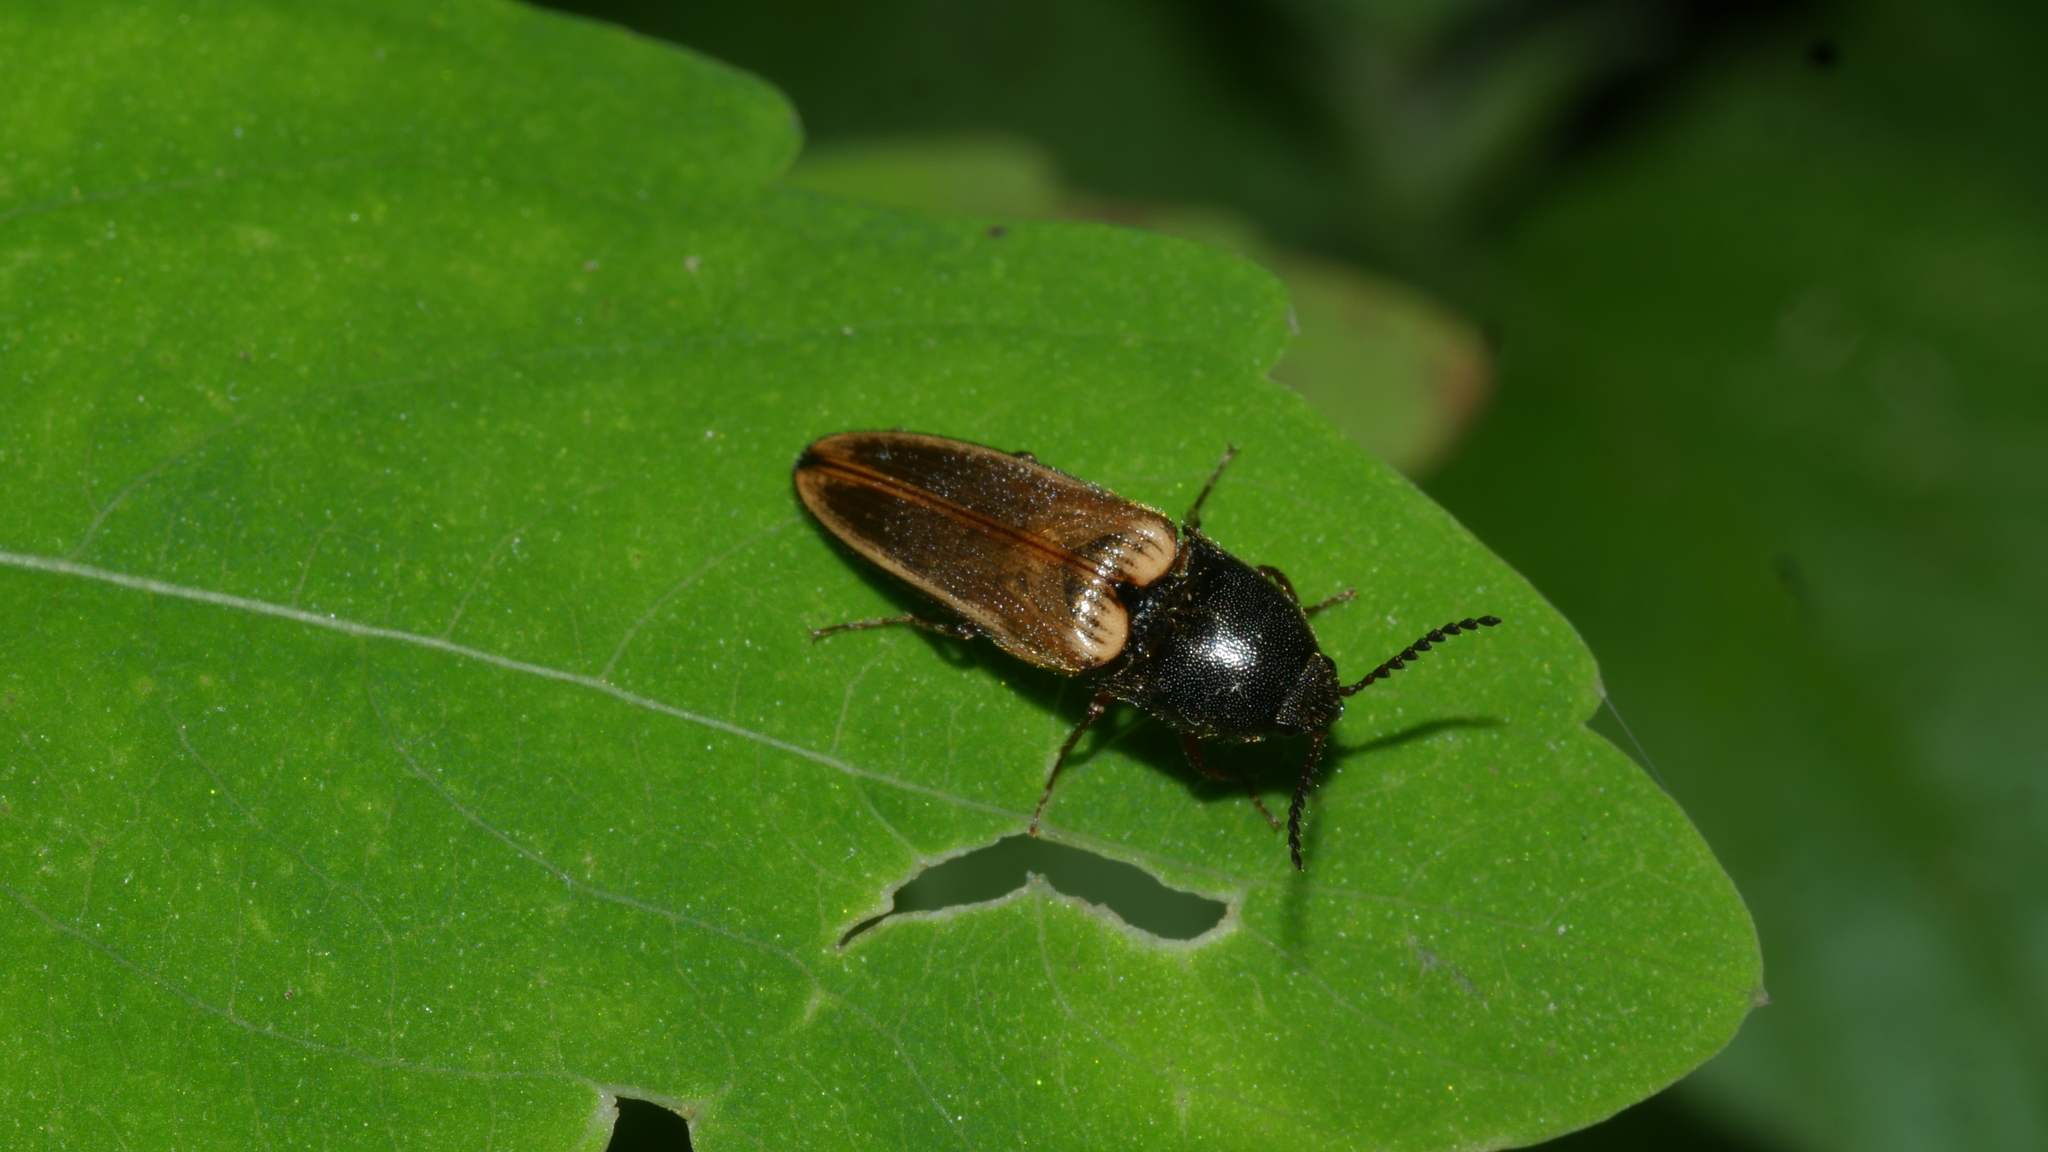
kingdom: Animalia
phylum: Arthropoda
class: Insecta
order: Coleoptera
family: Elateridae
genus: Ampedus
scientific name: Ampedus nigricollis
